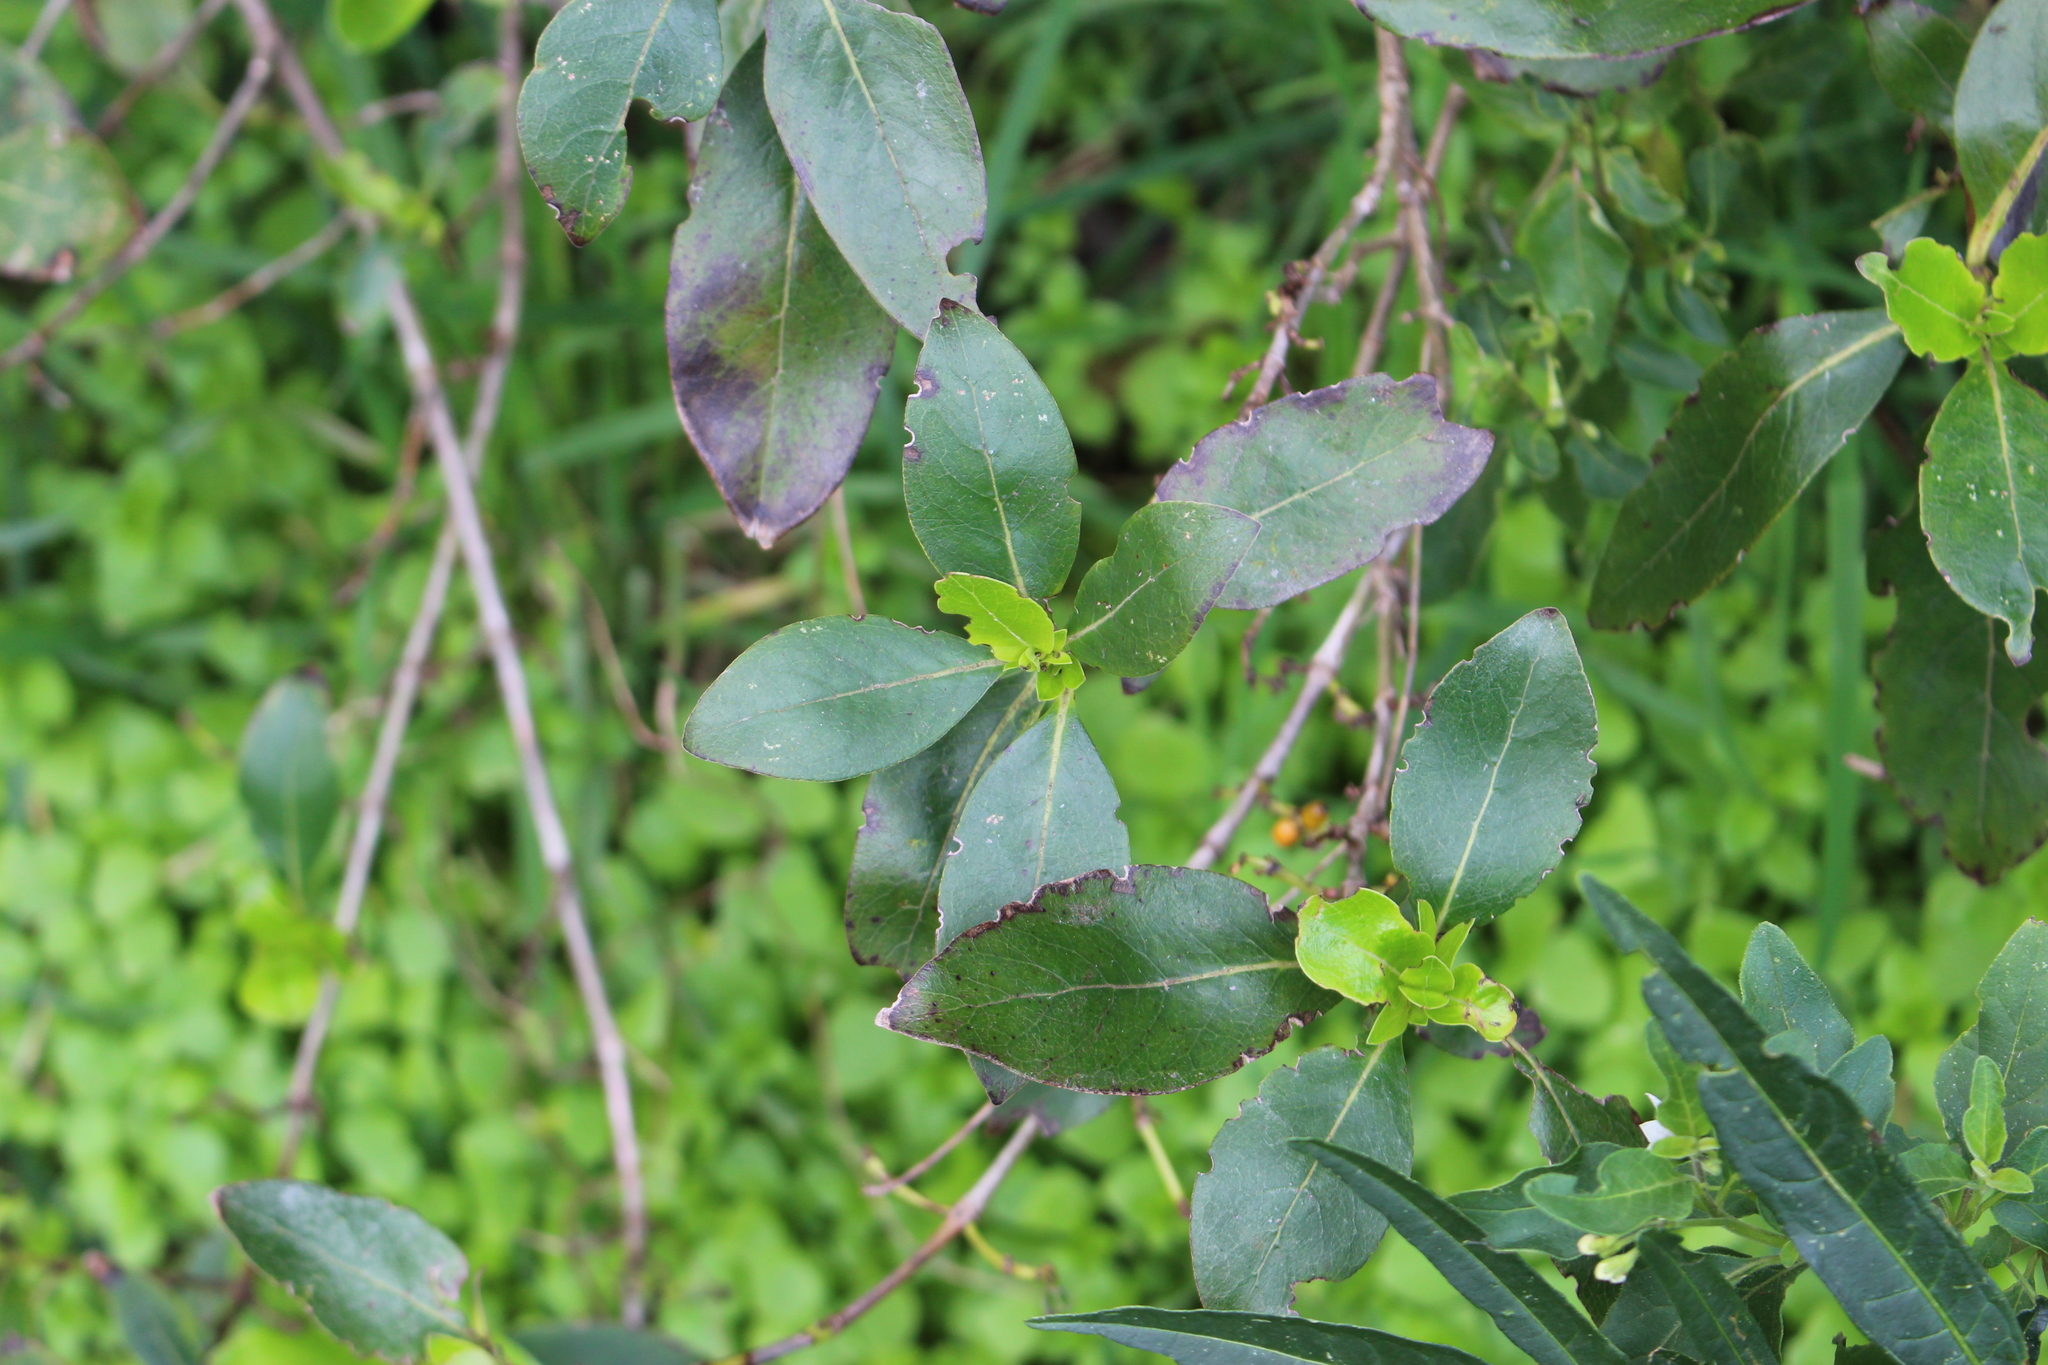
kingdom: Plantae
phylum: Tracheophyta
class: Magnoliopsida
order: Gentianales
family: Rubiaceae
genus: Coprosma
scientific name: Coprosma robusta
